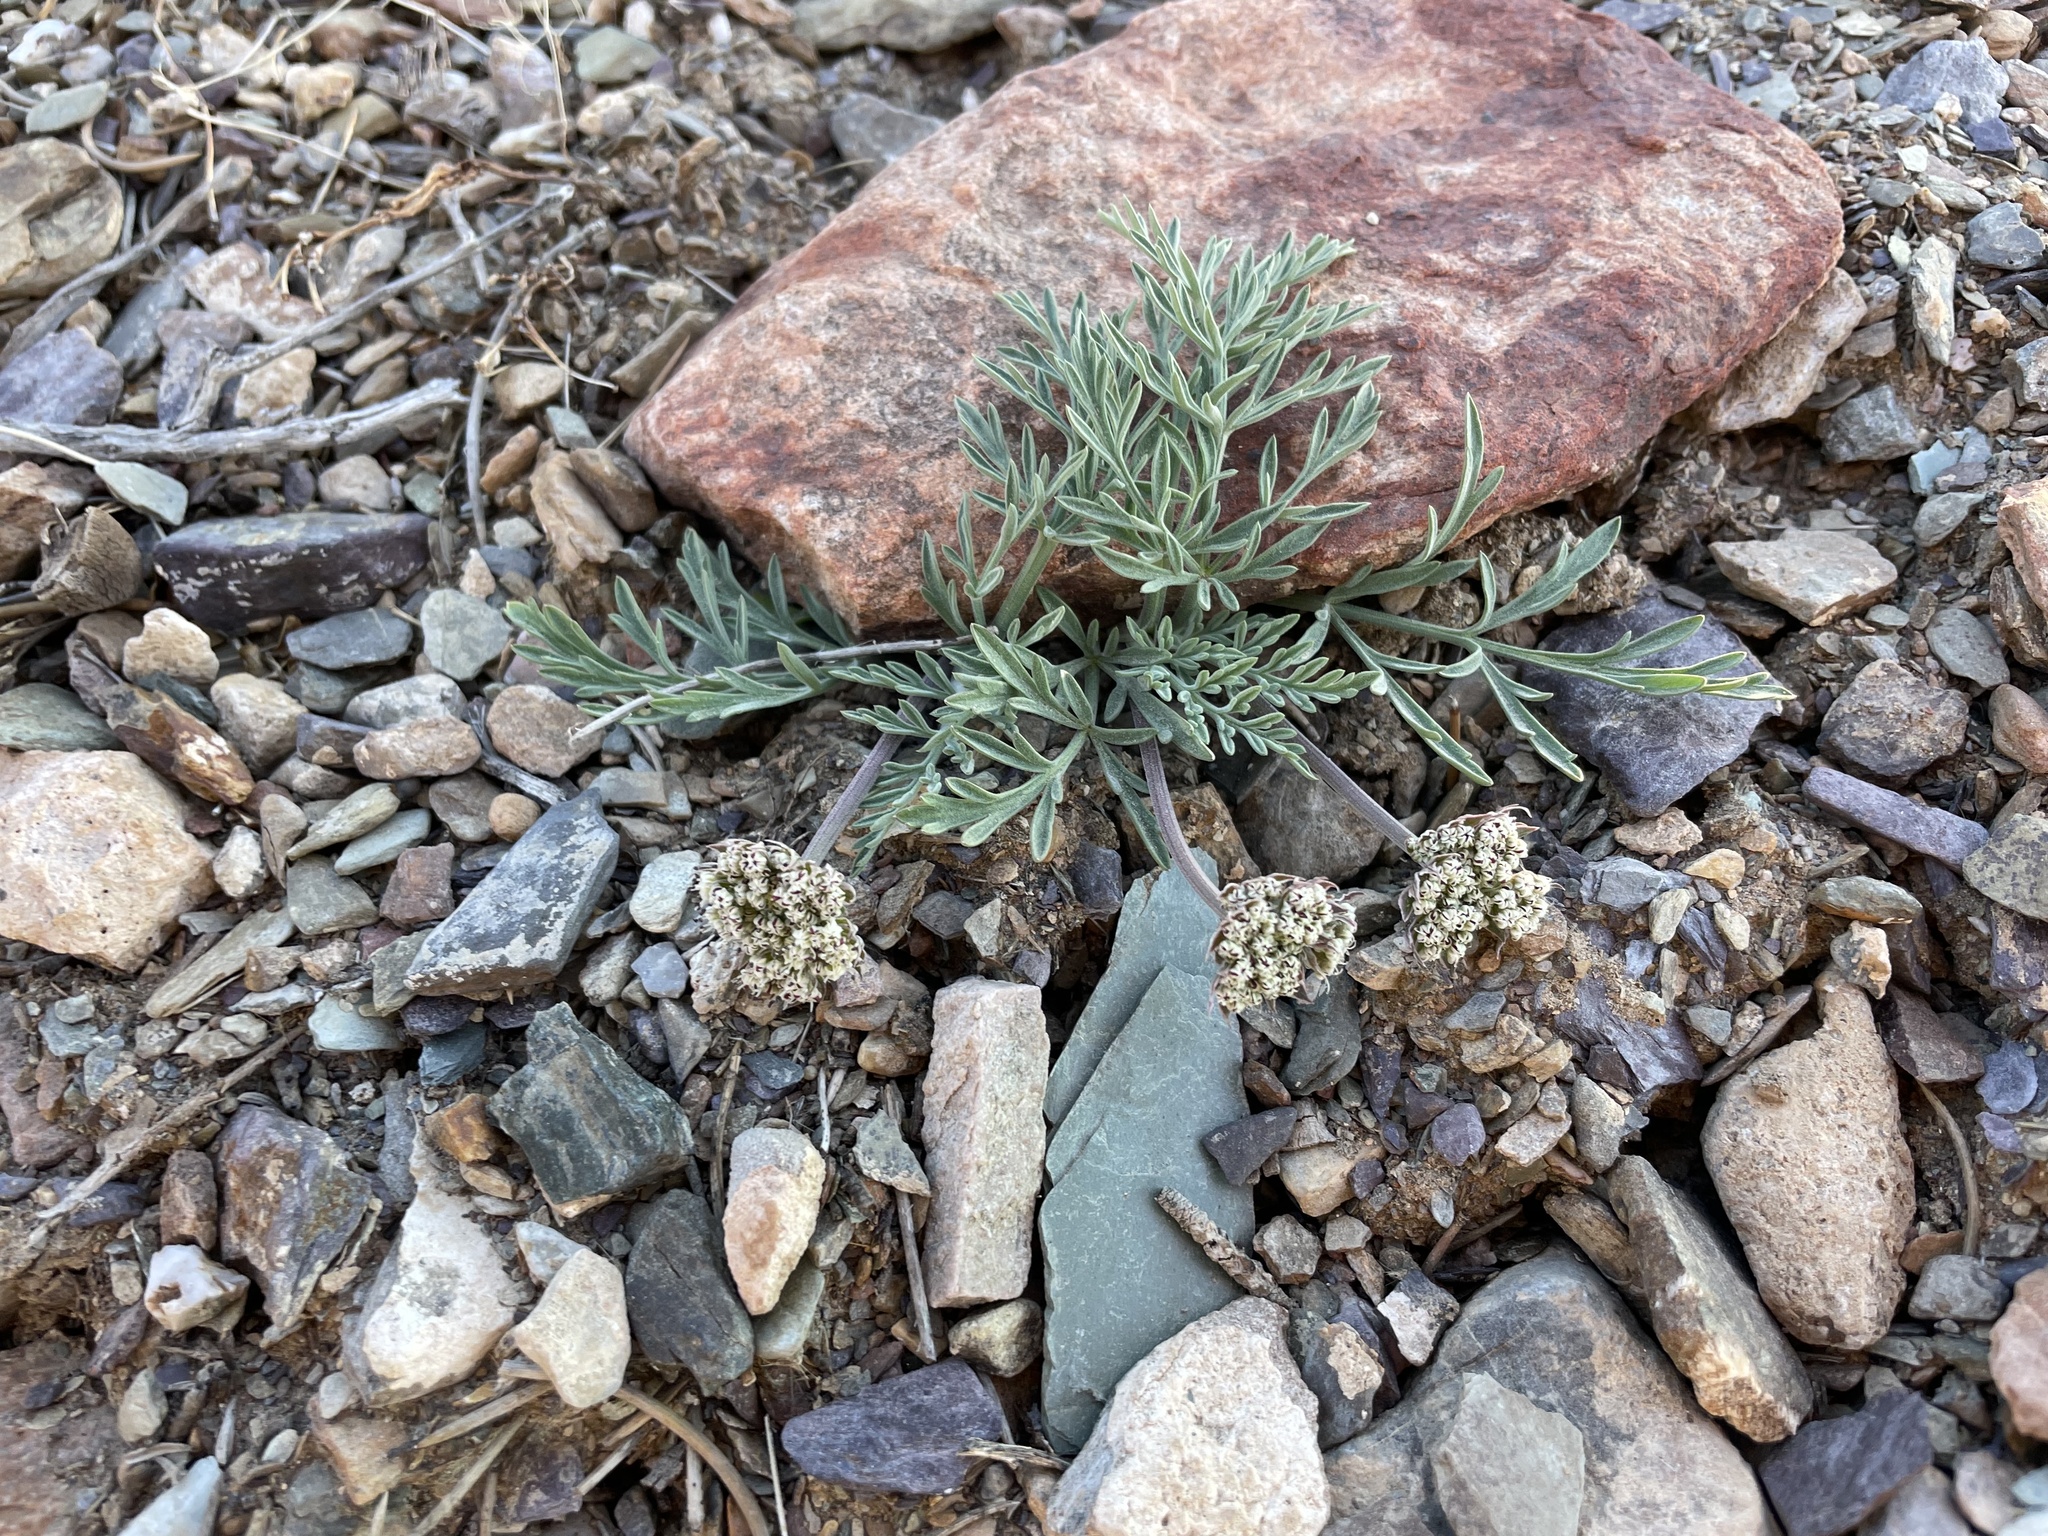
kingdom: Plantae
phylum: Tracheophyta
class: Magnoliopsida
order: Apiales
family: Apiaceae
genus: Lomatium
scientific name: Lomatium nevadense
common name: Nevada lomatium
